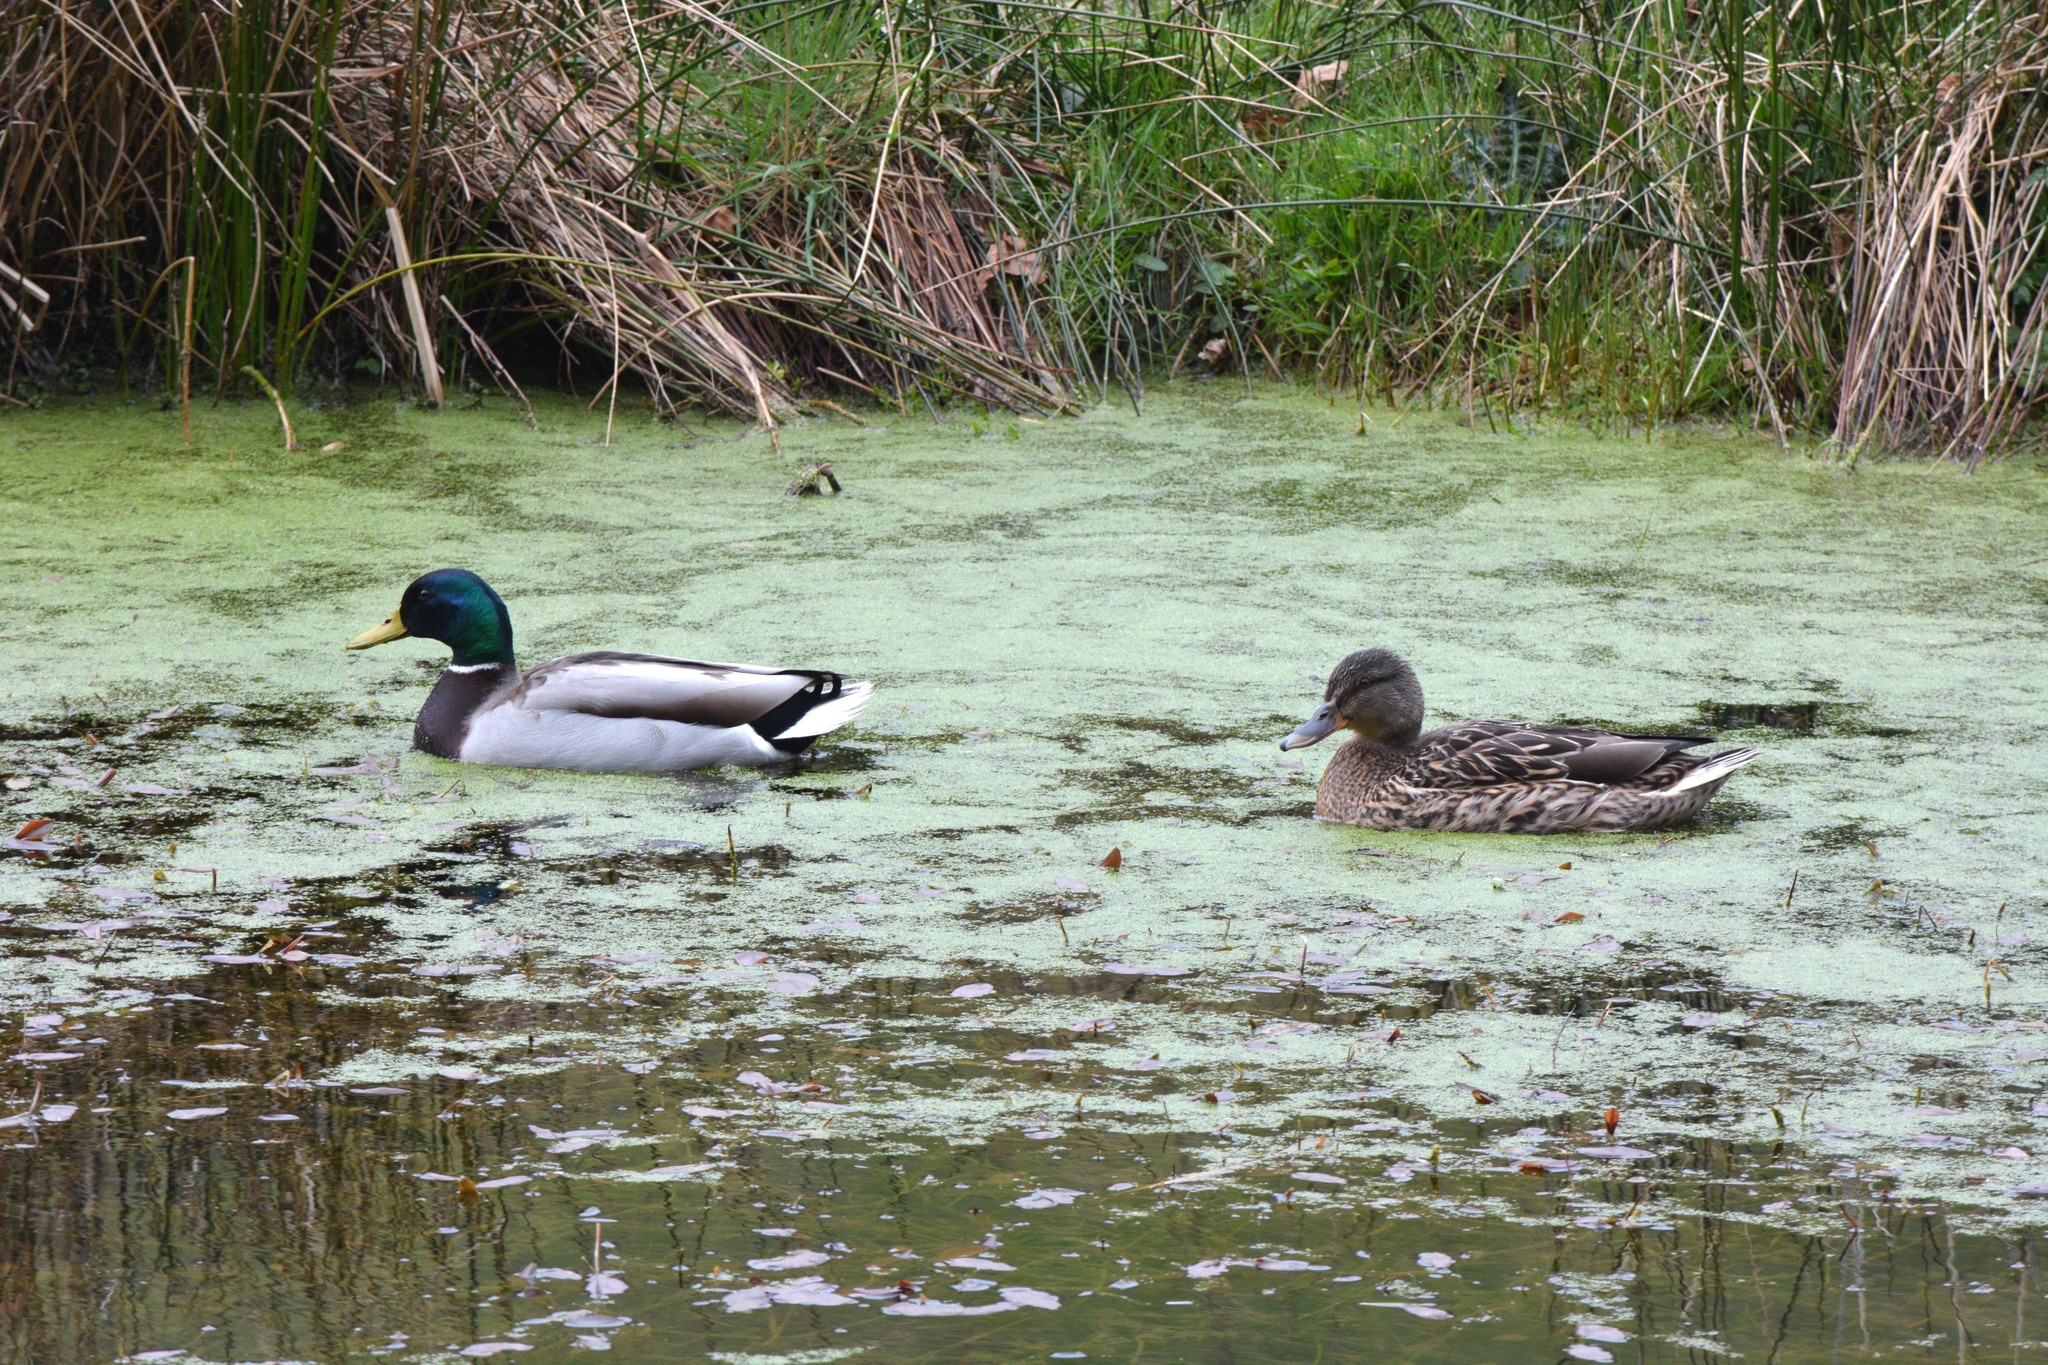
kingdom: Animalia
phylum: Chordata
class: Aves
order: Anseriformes
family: Anatidae
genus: Anas
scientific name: Anas platyrhynchos
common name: Mallard
